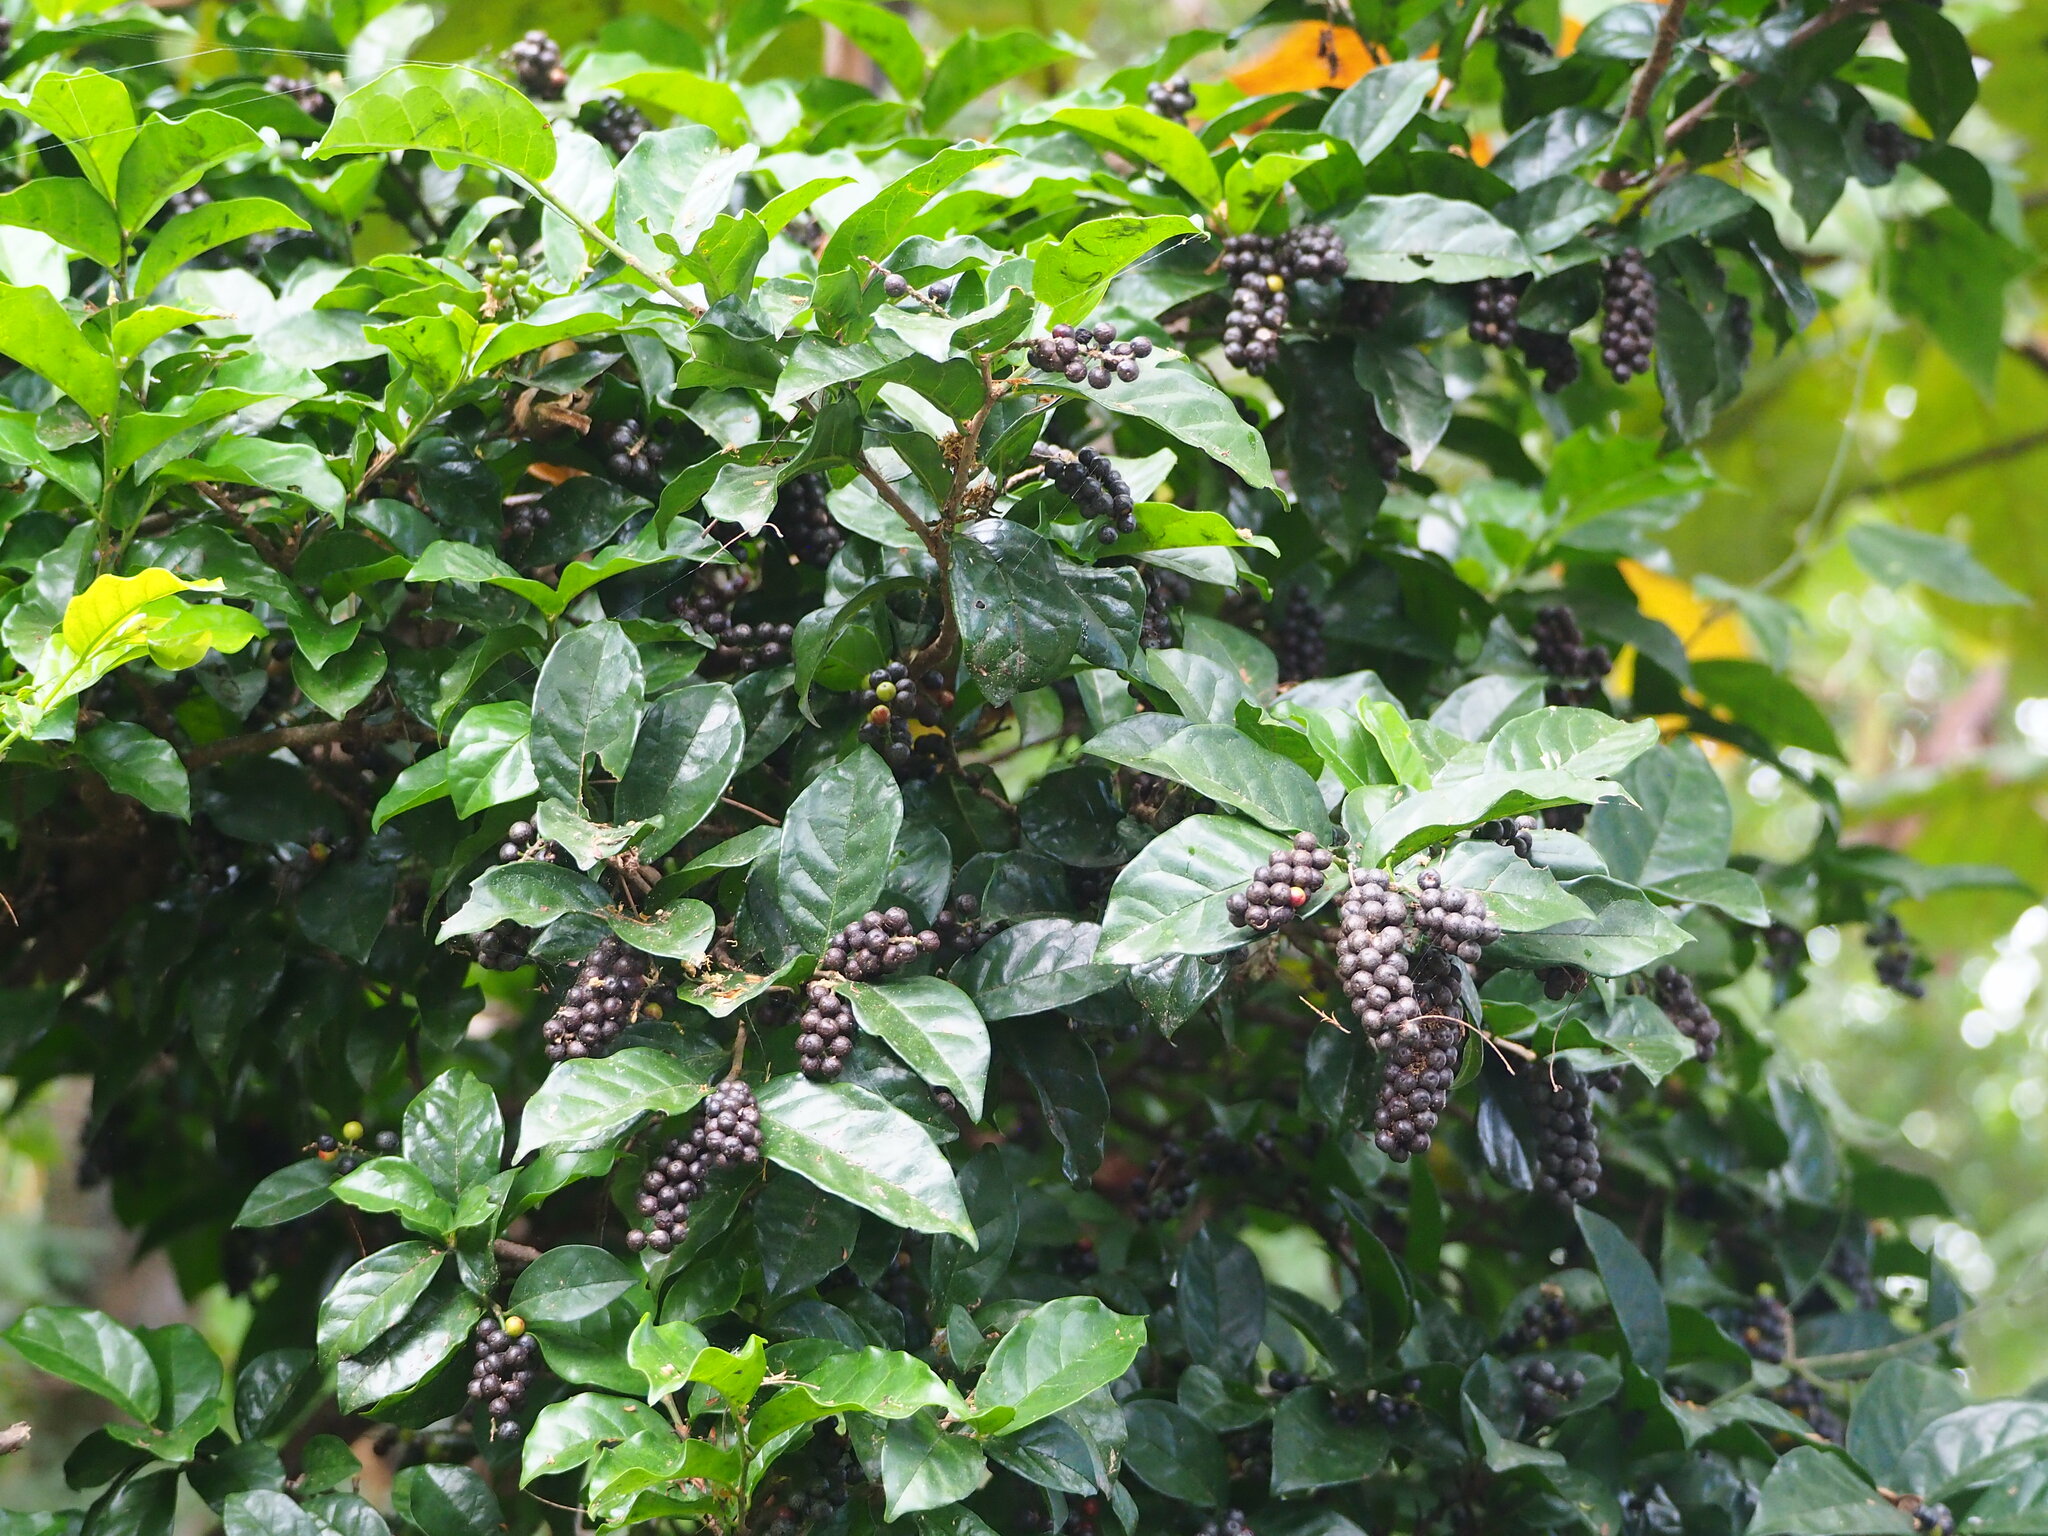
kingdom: Plantae
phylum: Tracheophyta
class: Magnoliopsida
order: Malpighiales
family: Phyllanthaceae
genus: Antidesma
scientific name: Antidesma montanum
